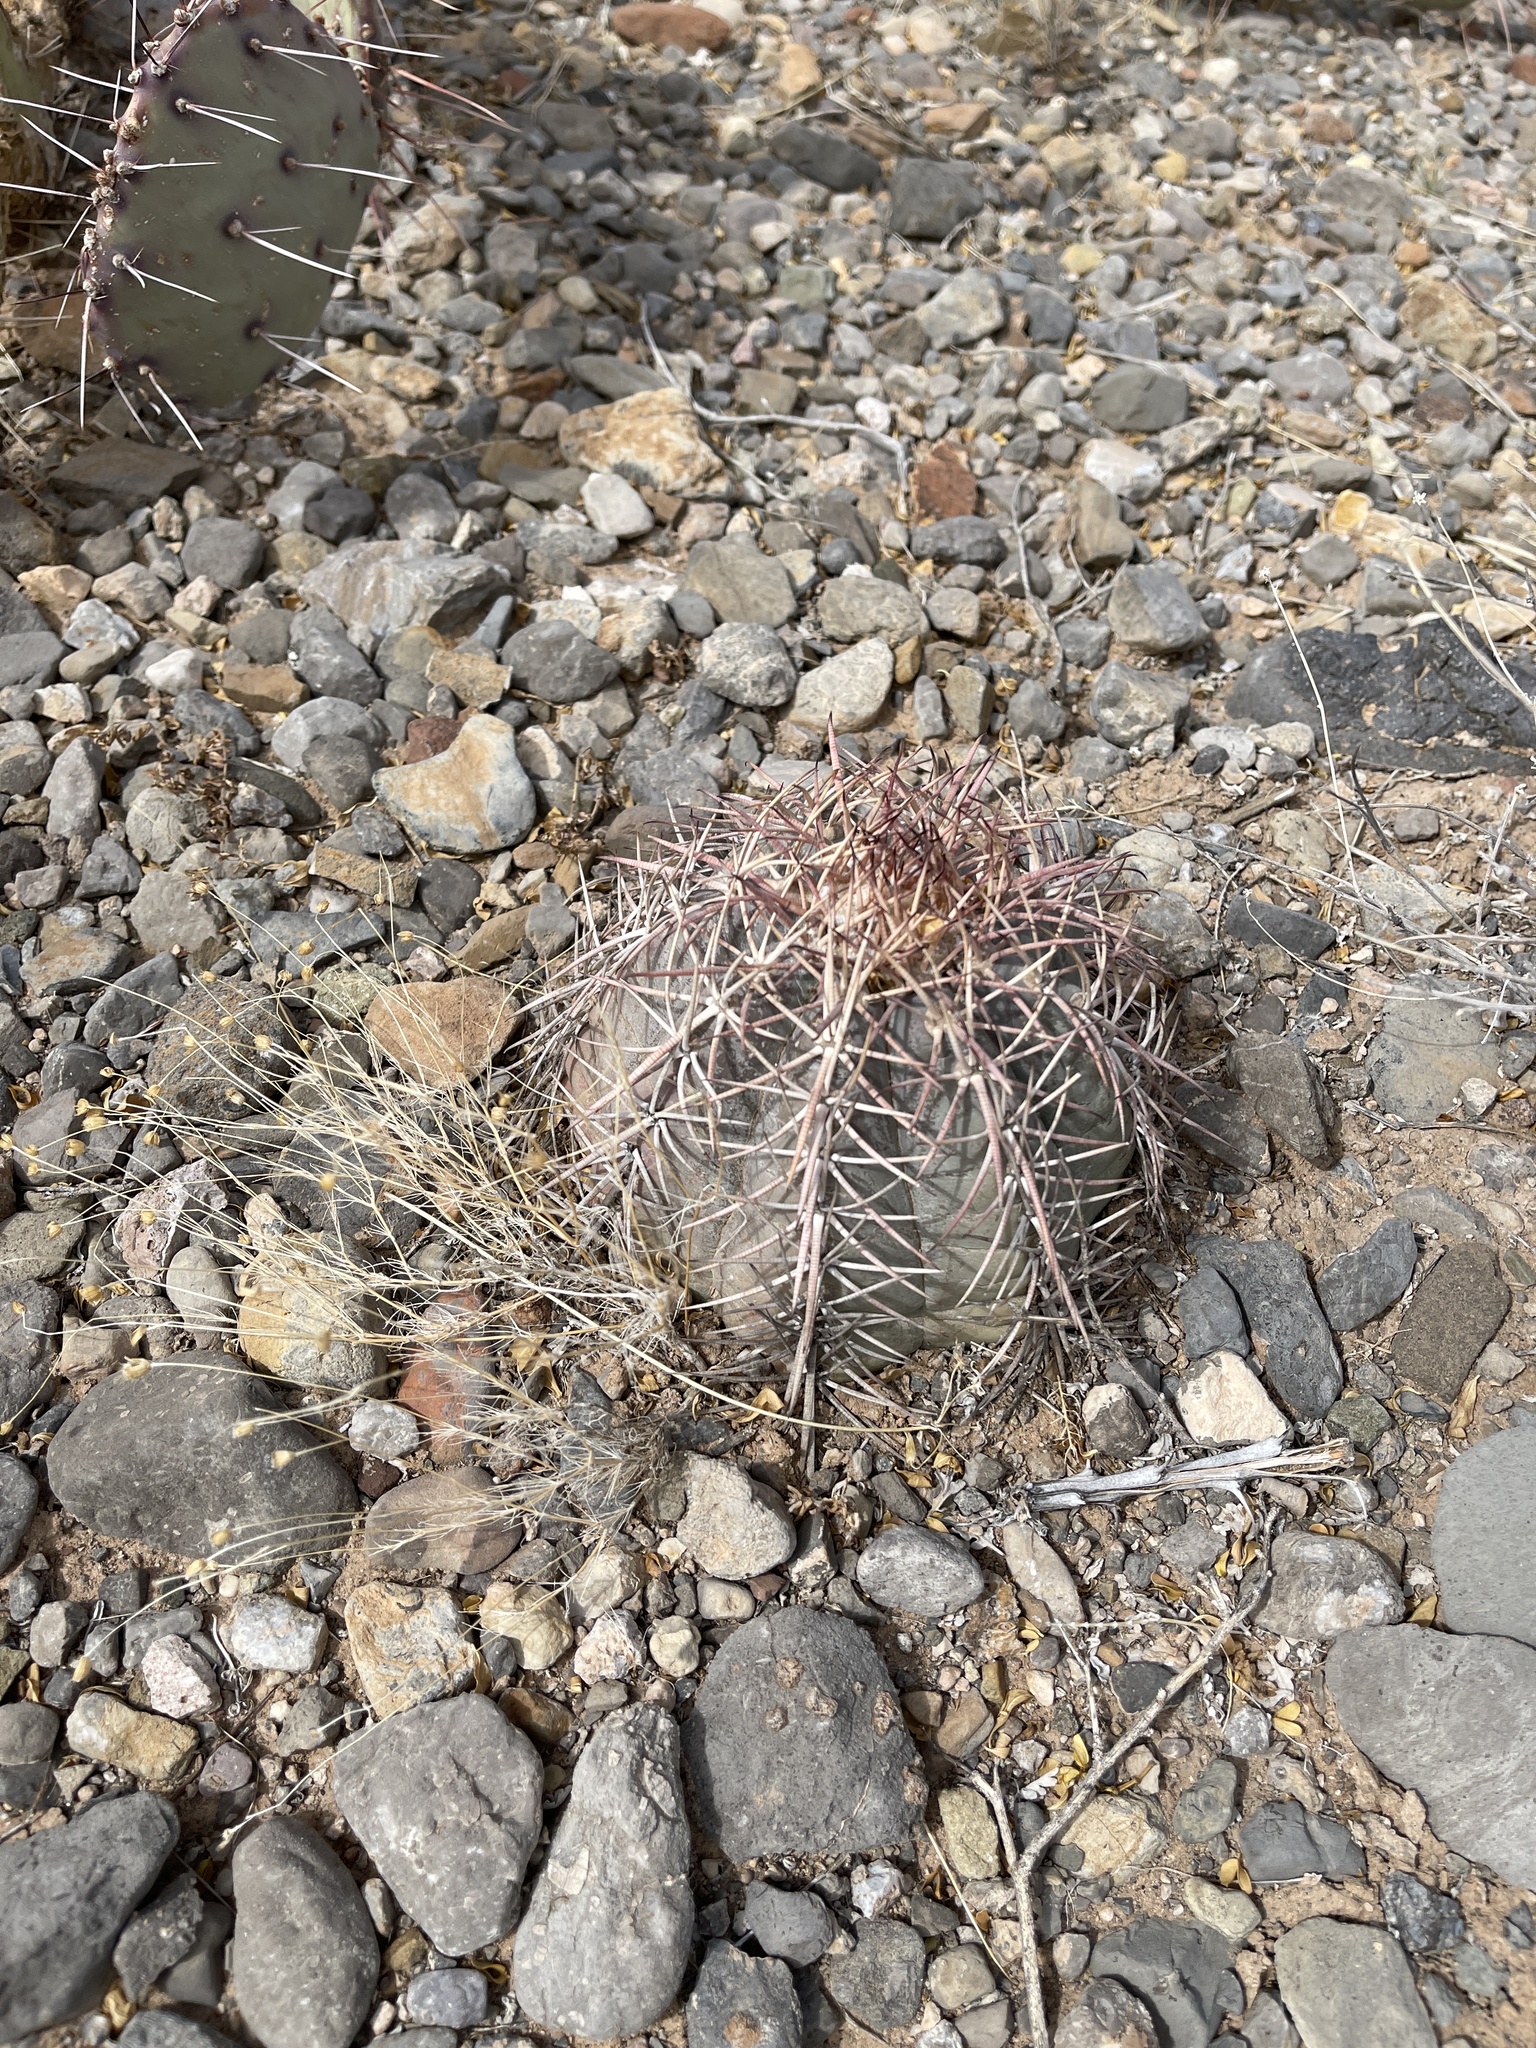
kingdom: Plantae
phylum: Tracheophyta
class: Magnoliopsida
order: Caryophyllales
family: Cactaceae
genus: Echinocactus
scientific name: Echinocactus horizonthalonius
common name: Devilshead
